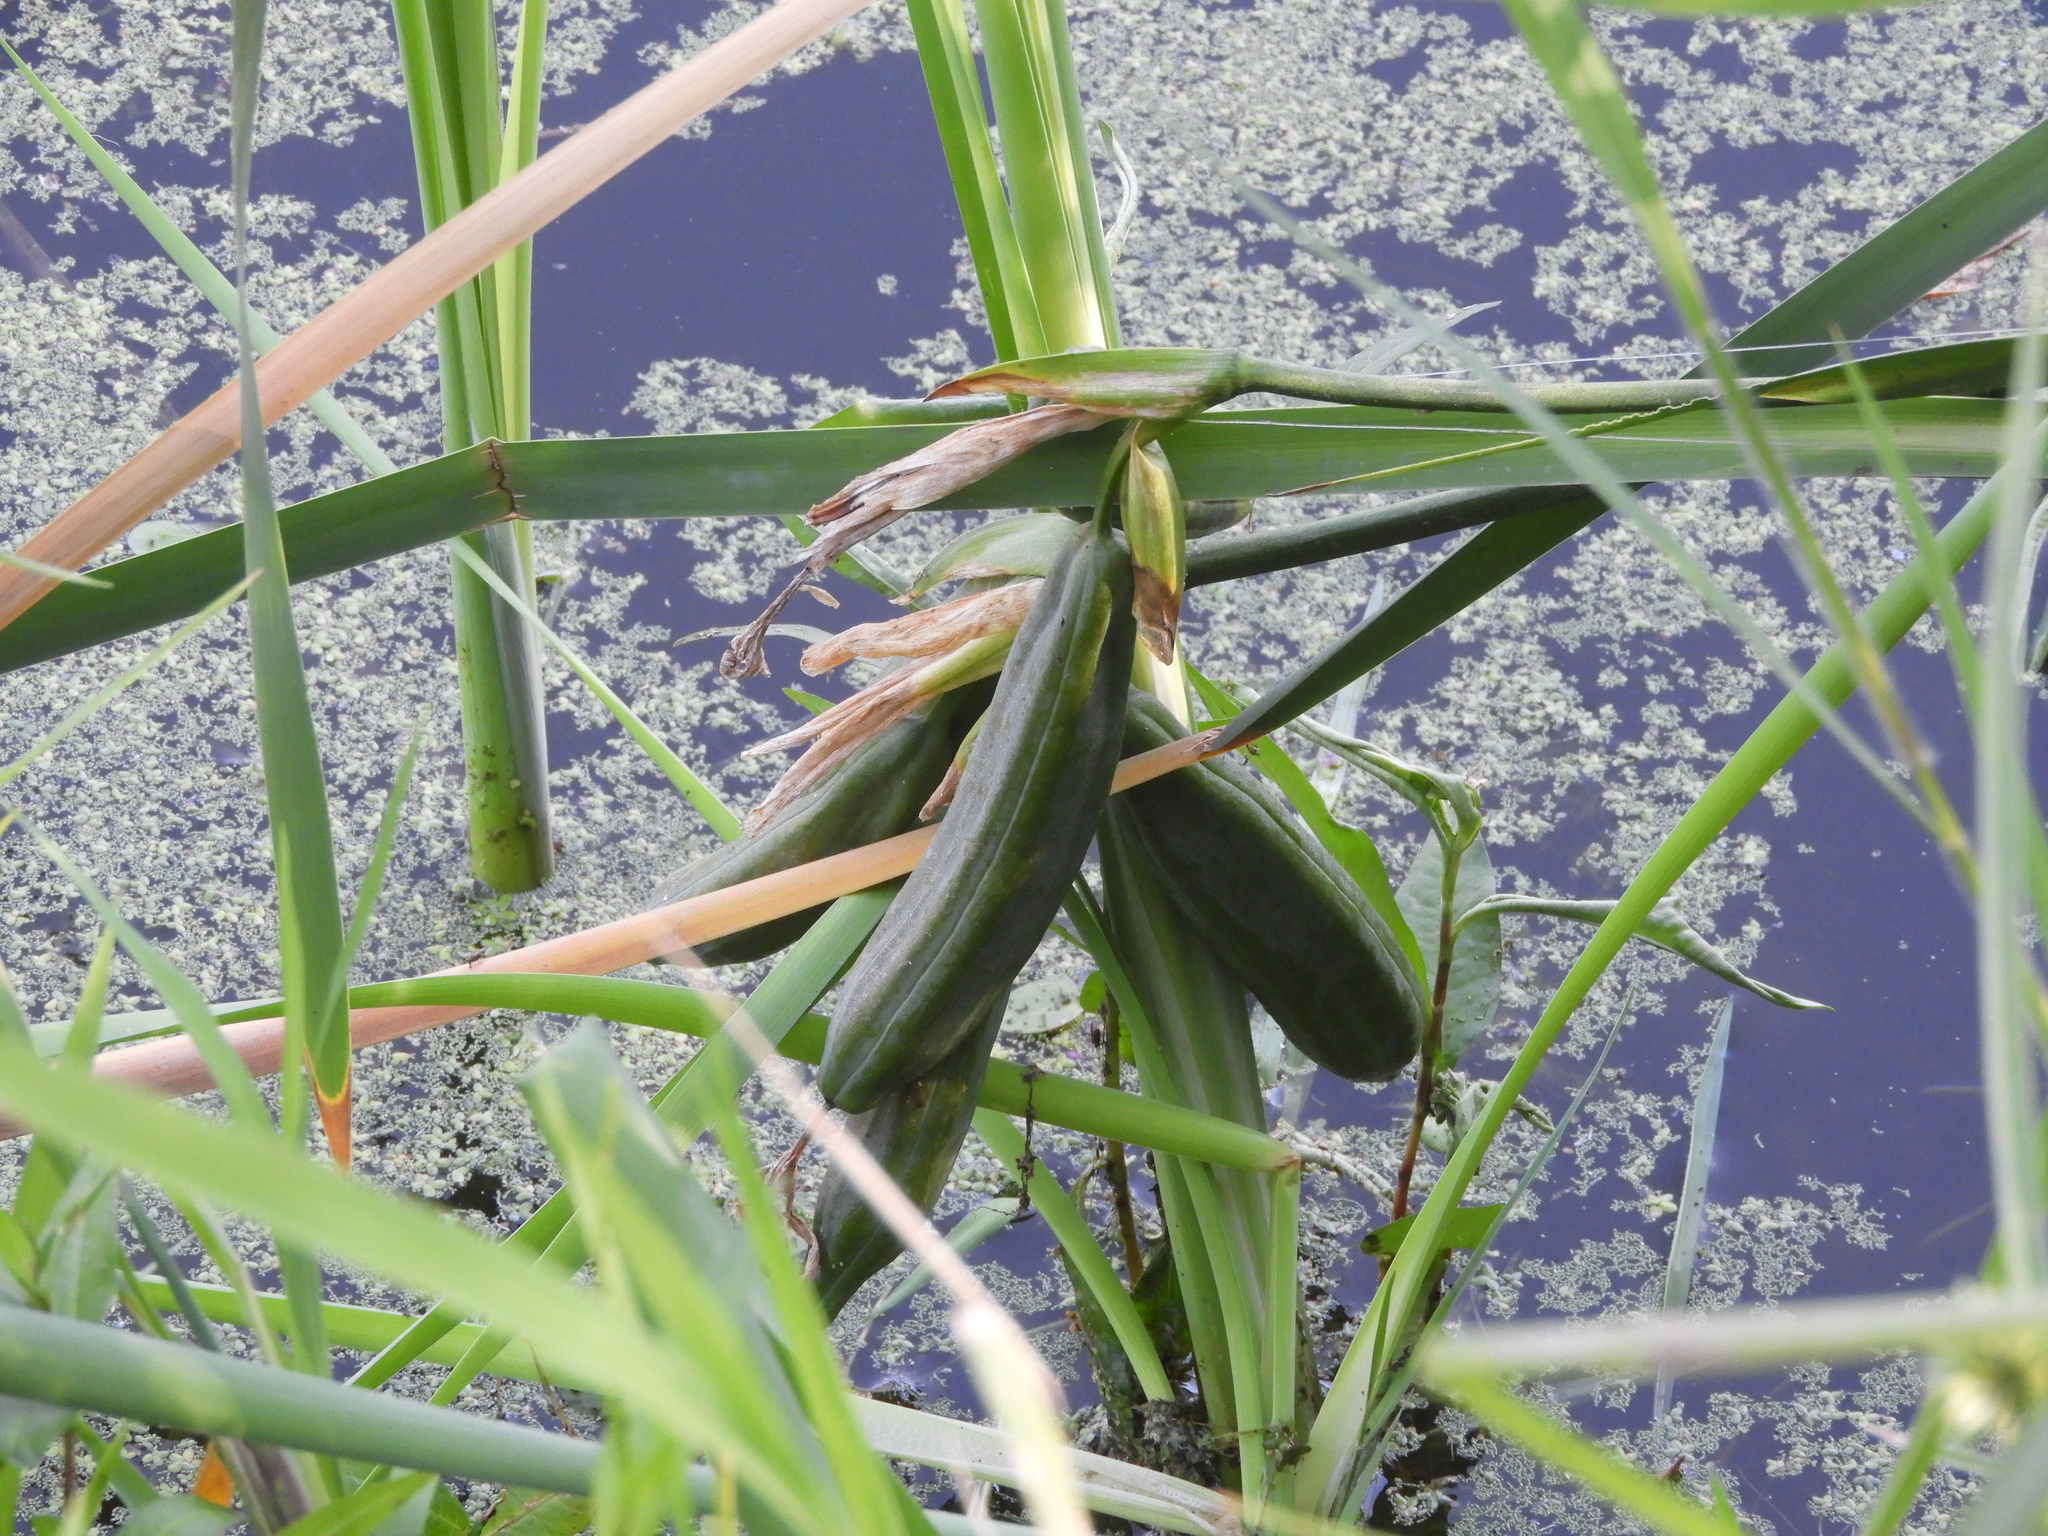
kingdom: Plantae
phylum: Tracheophyta
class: Liliopsida
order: Asparagales
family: Iridaceae
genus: Iris
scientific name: Iris pseudacorus
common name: Yellow flag
